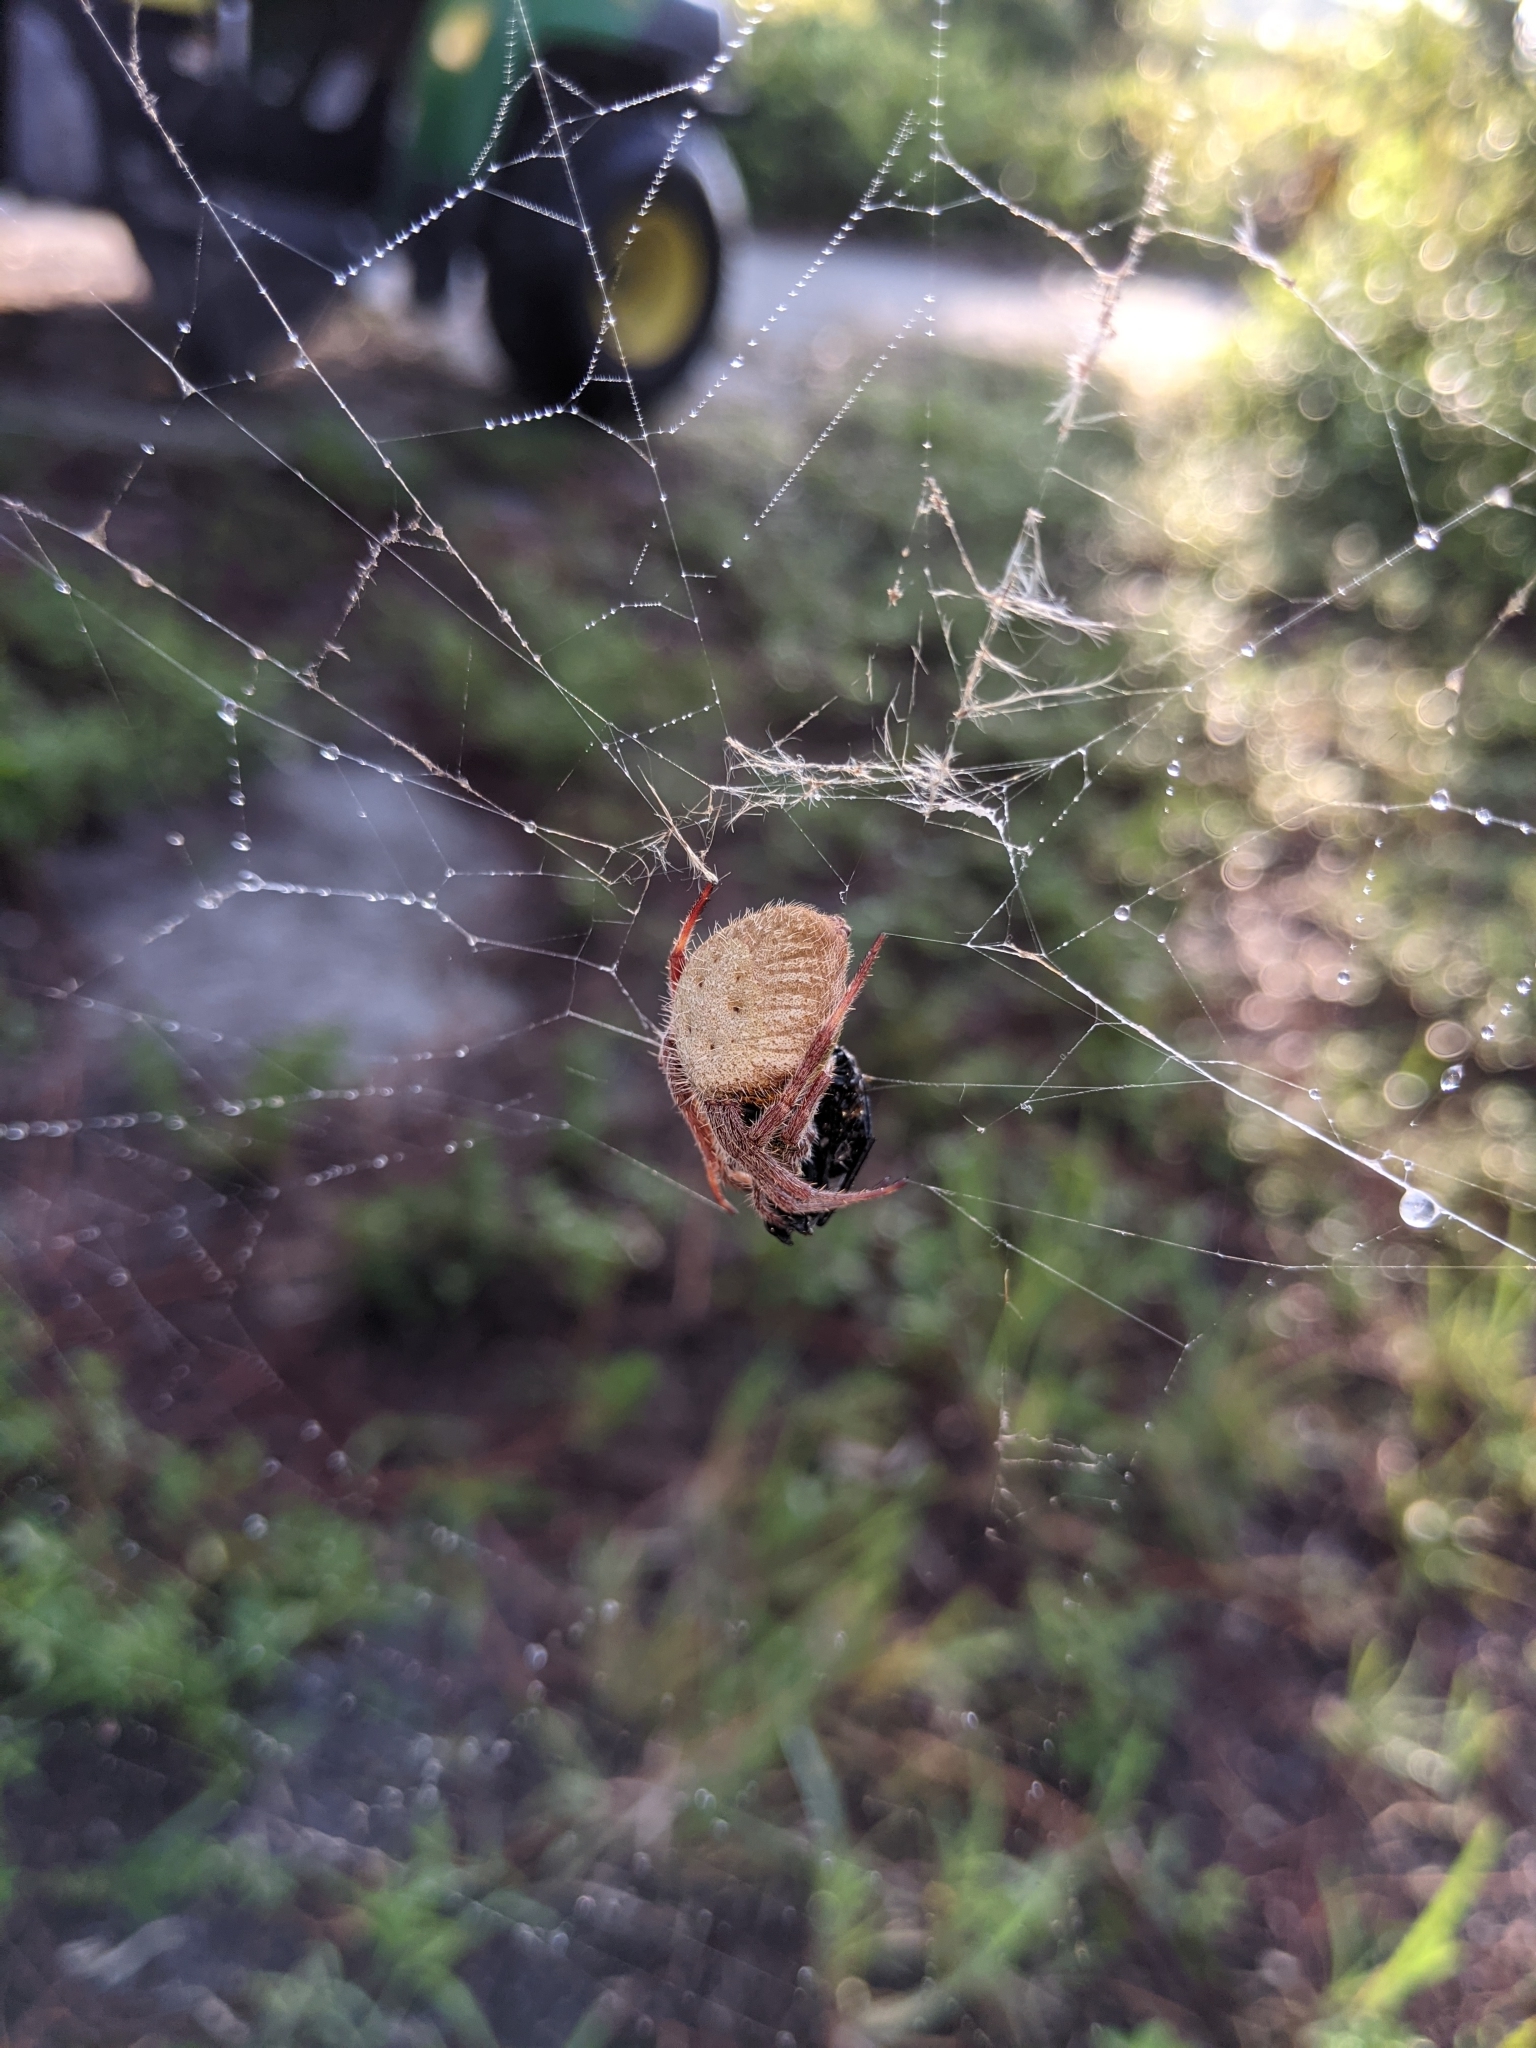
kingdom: Animalia
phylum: Arthropoda
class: Arachnida
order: Araneae
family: Araneidae
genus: Eriophora
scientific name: Eriophora ravilla
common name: Orb weavers
